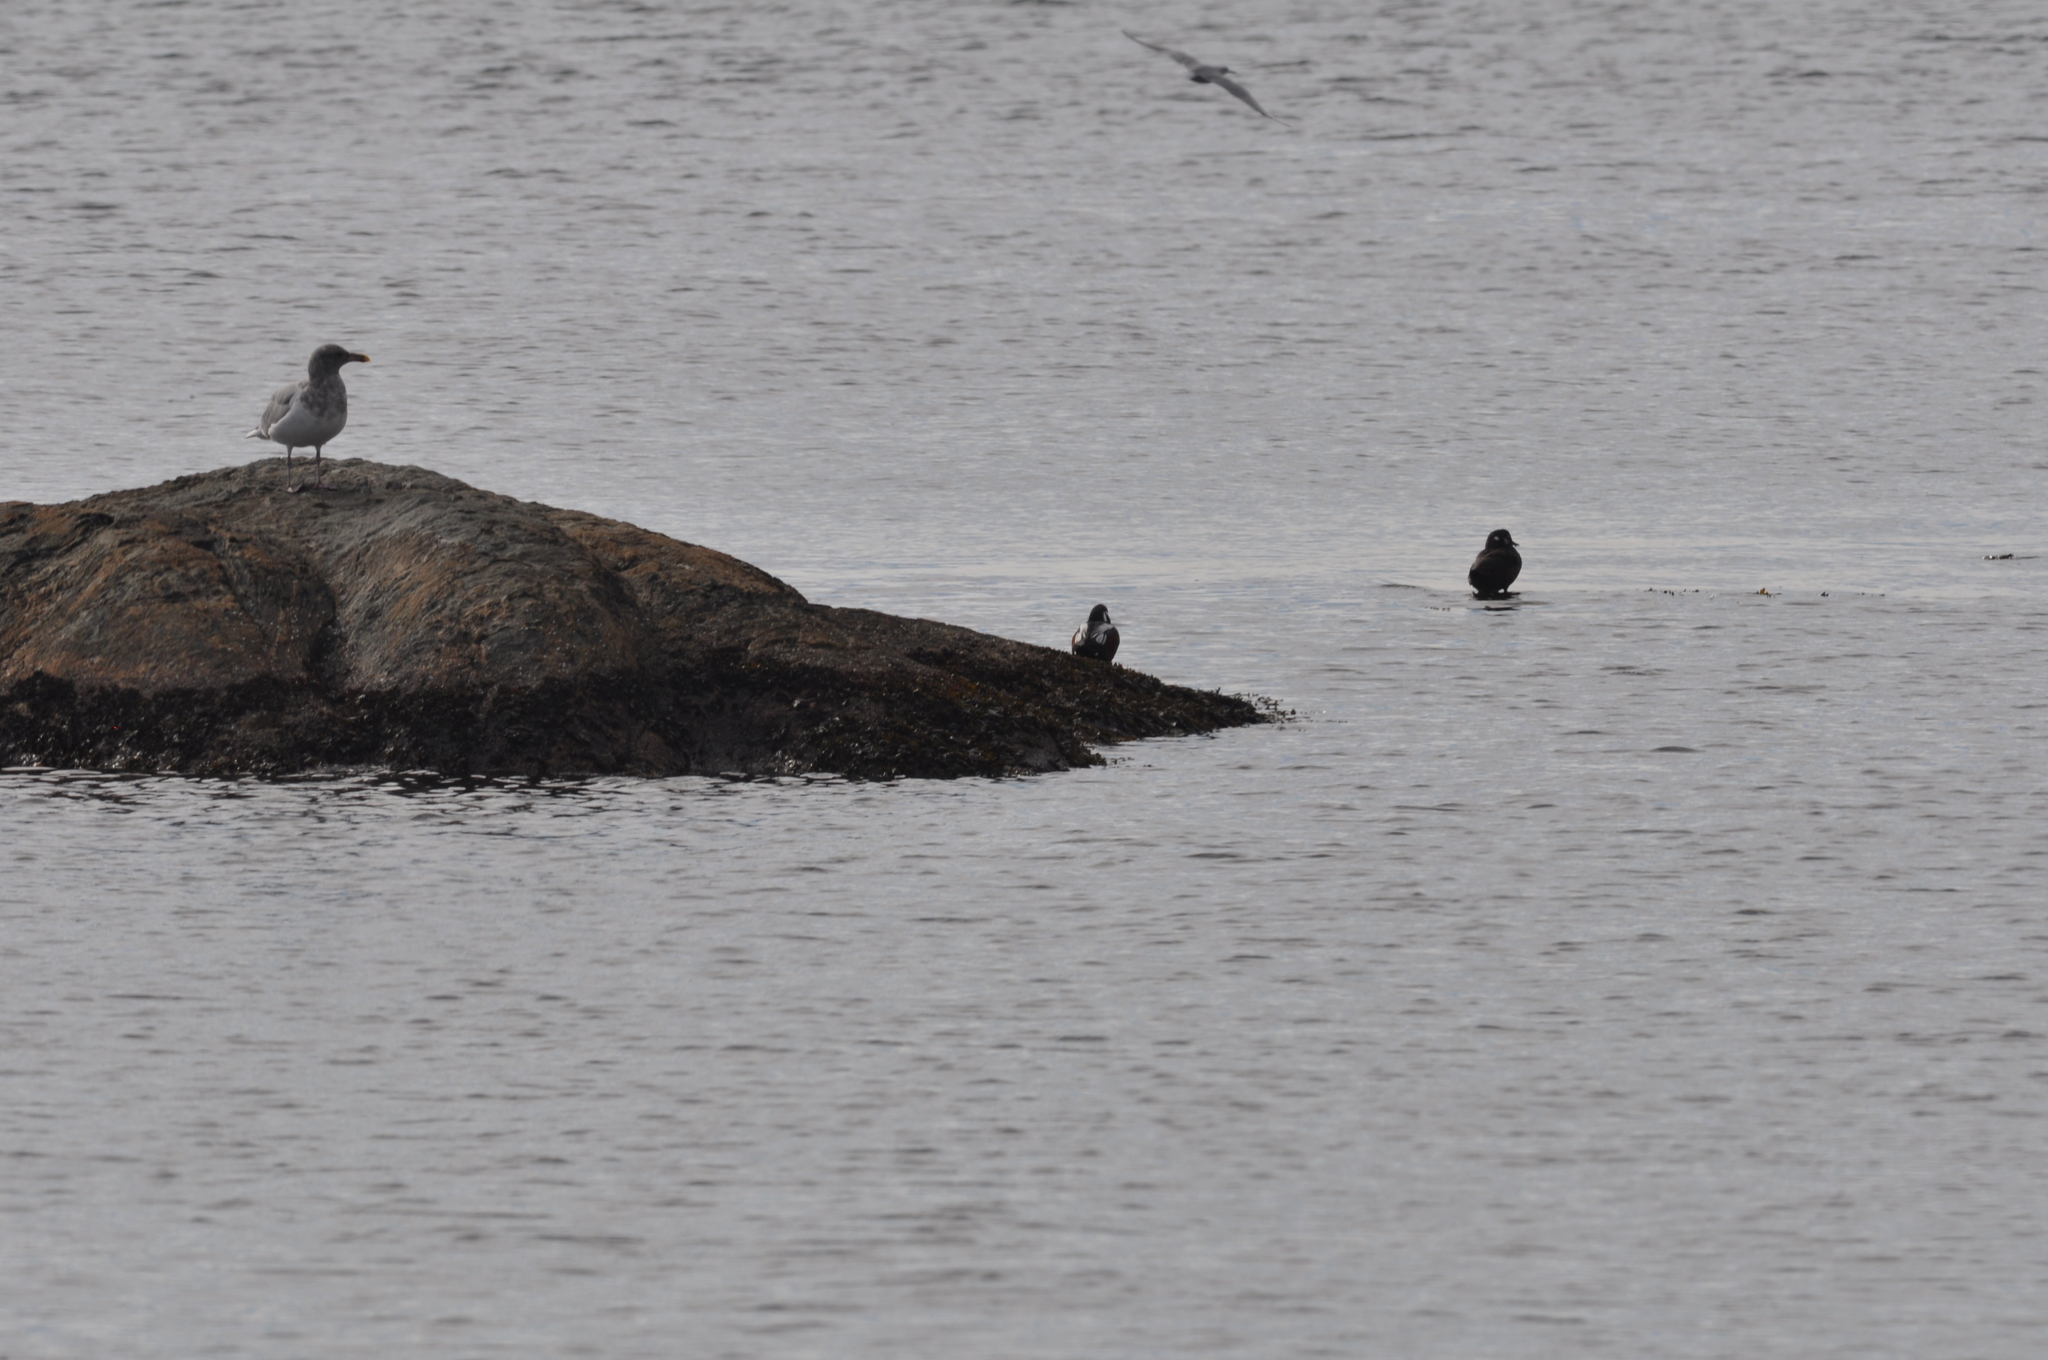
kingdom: Animalia
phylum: Chordata
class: Aves
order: Anseriformes
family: Anatidae
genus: Histrionicus
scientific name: Histrionicus histrionicus
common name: Harlequin duck
